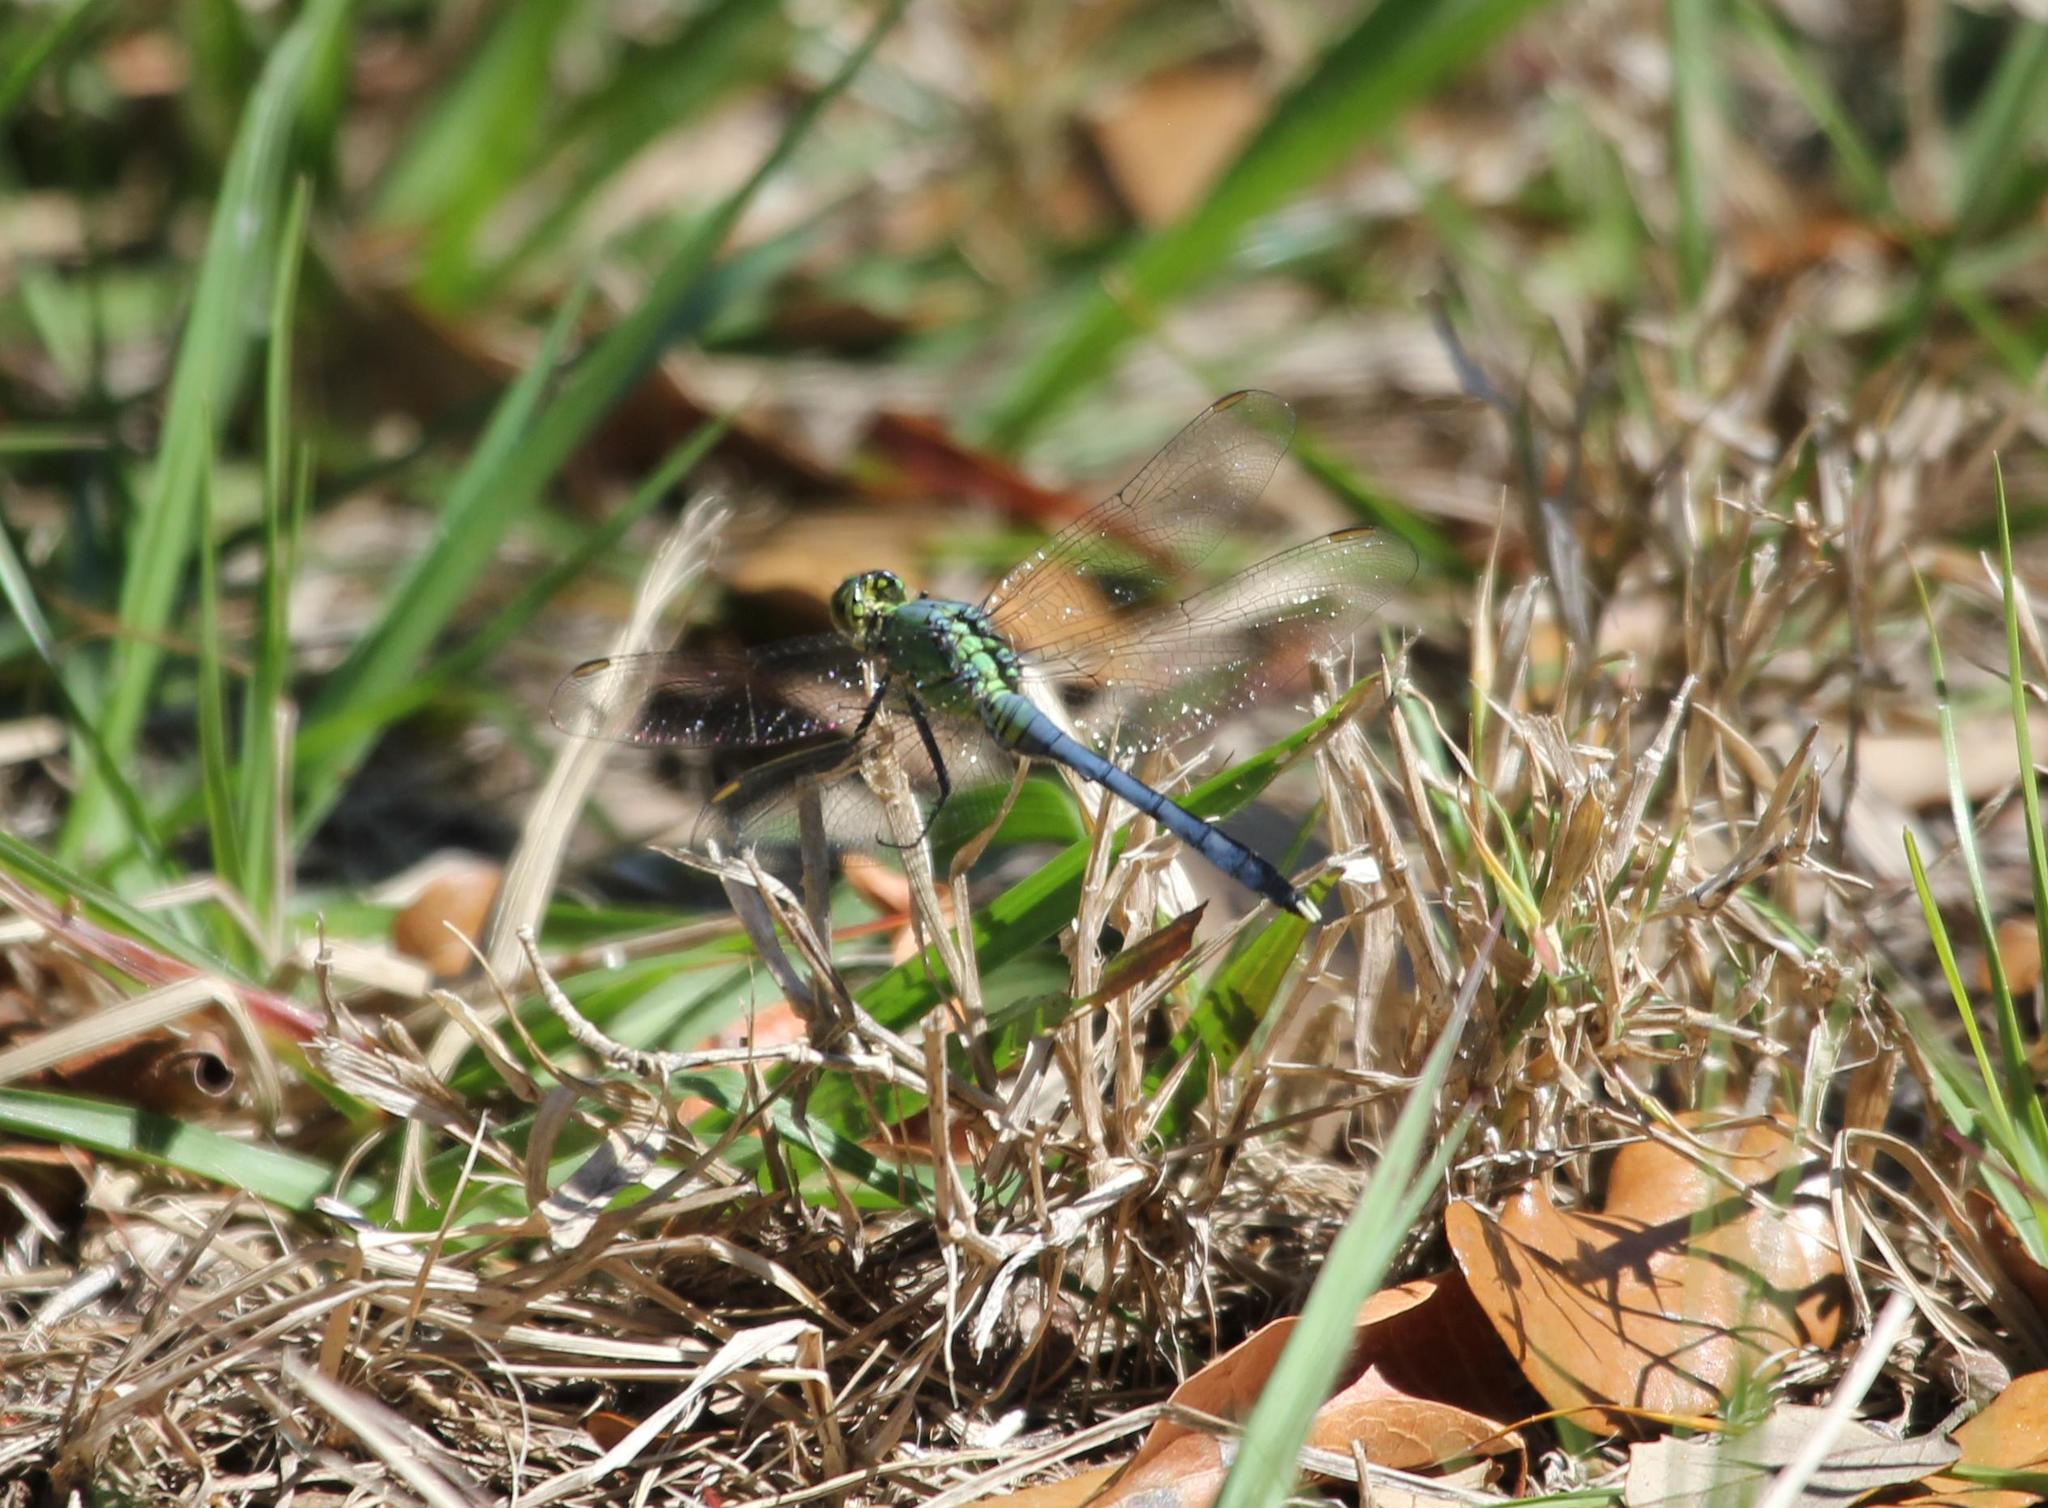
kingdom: Animalia
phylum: Arthropoda
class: Insecta
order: Odonata
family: Libellulidae
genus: Erythemis
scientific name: Erythemis simplicicollis
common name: Eastern pondhawk
